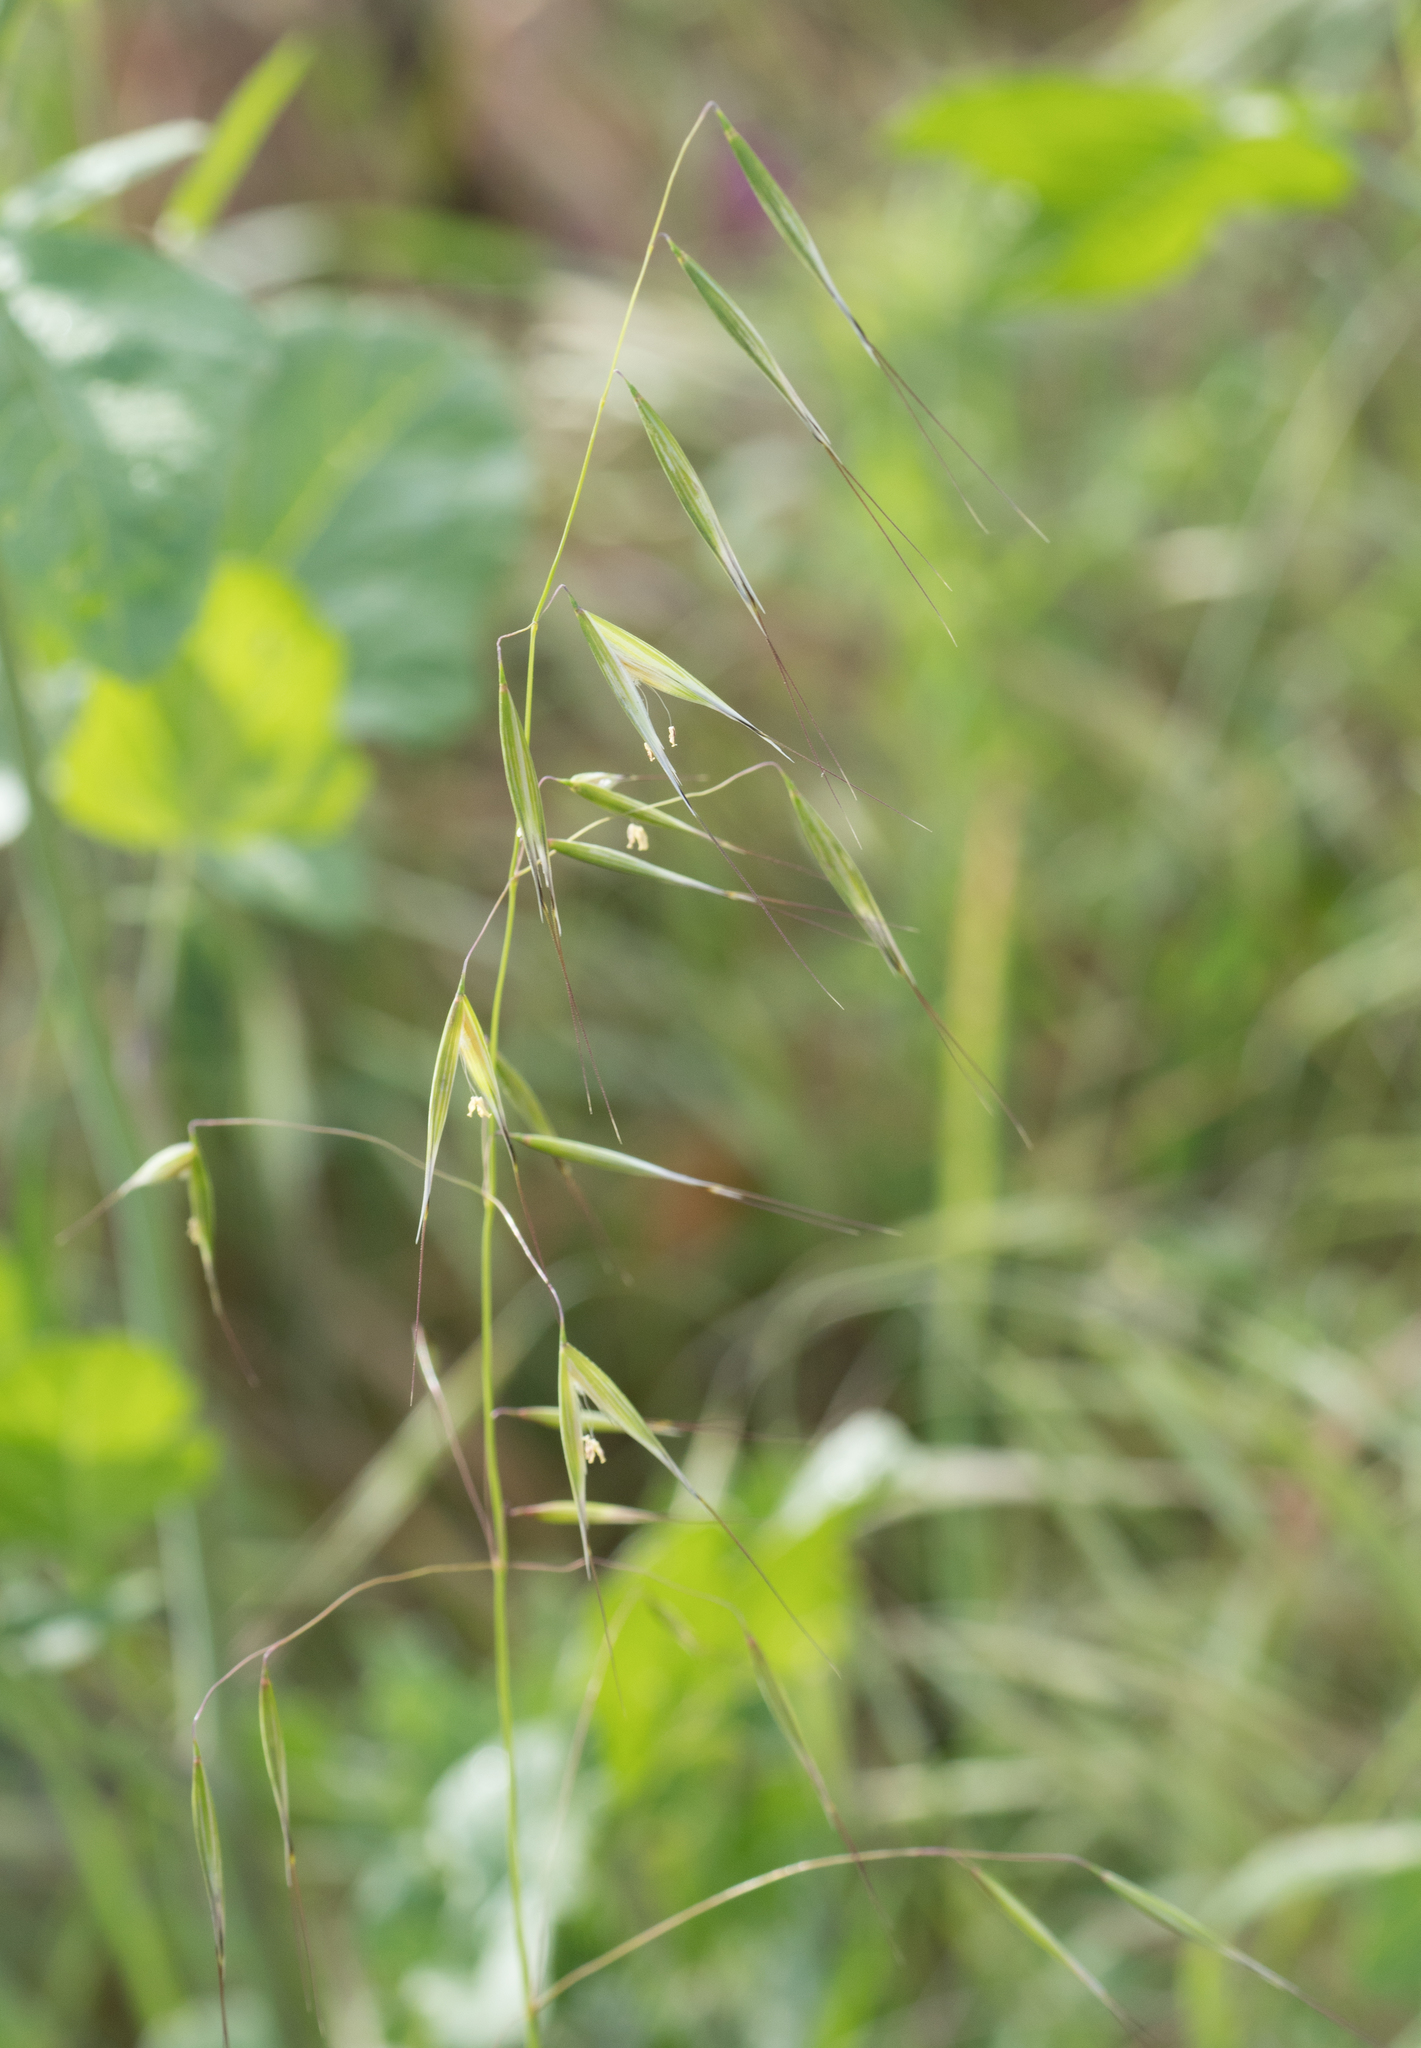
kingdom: Plantae
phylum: Tracheophyta
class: Liliopsida
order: Poales
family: Poaceae
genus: Avena
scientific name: Avena barbata
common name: Slender oat
